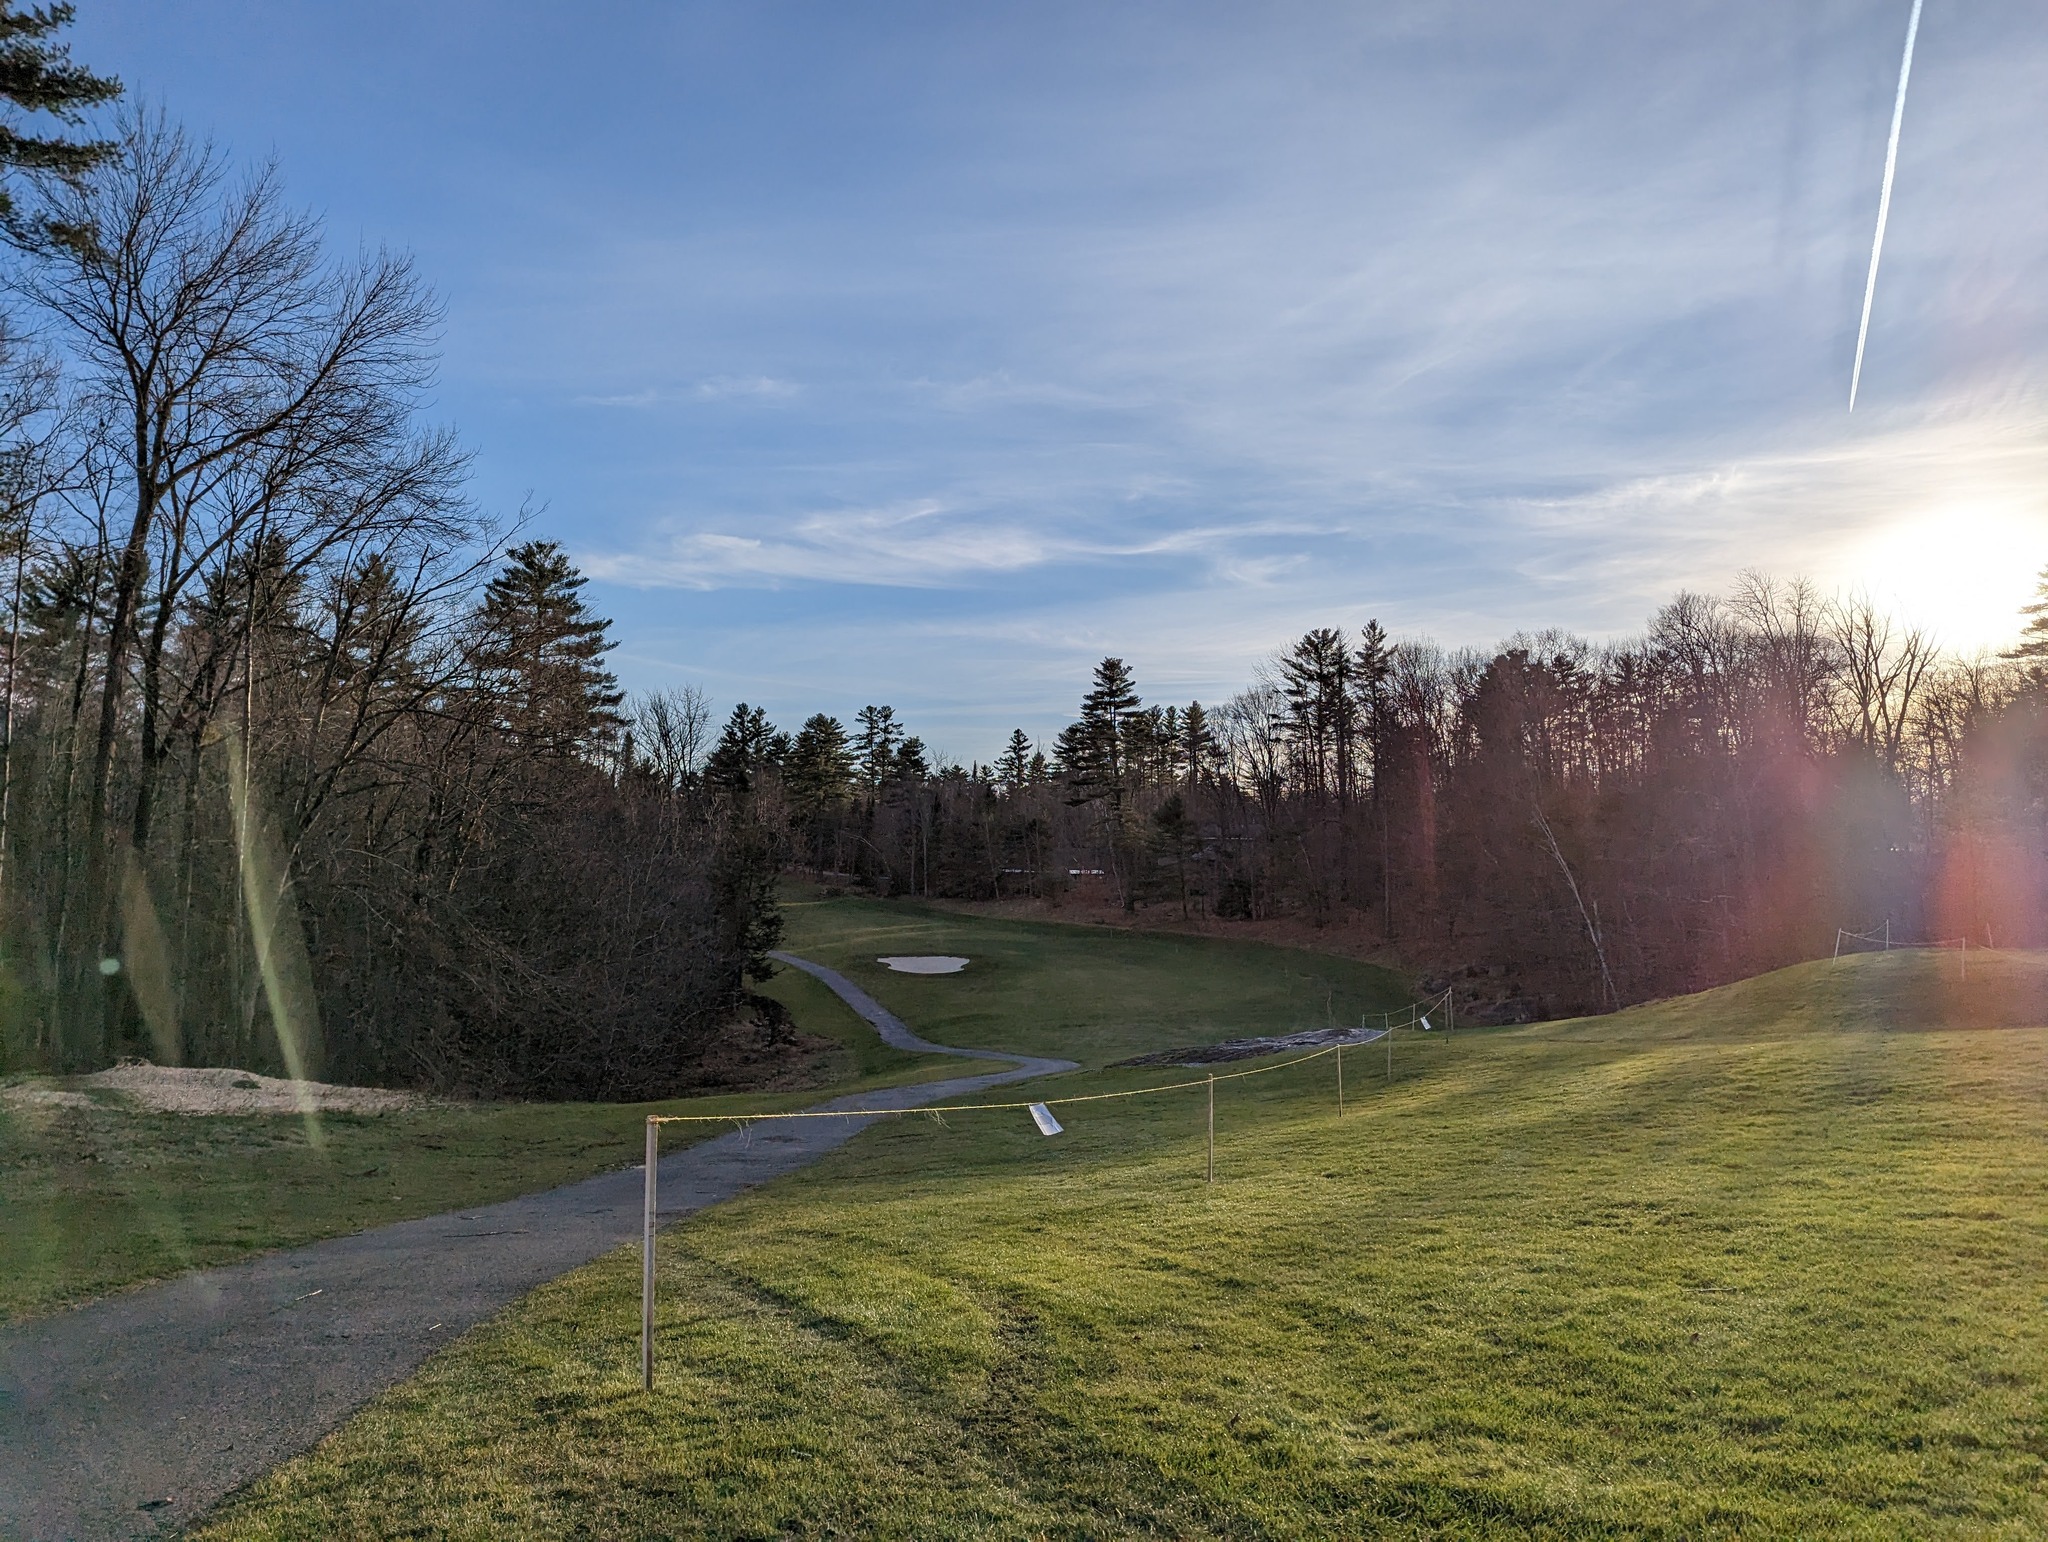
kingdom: Plantae
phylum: Tracheophyta
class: Pinopsida
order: Pinales
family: Pinaceae
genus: Pinus
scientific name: Pinus strobus
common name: Weymouth pine
